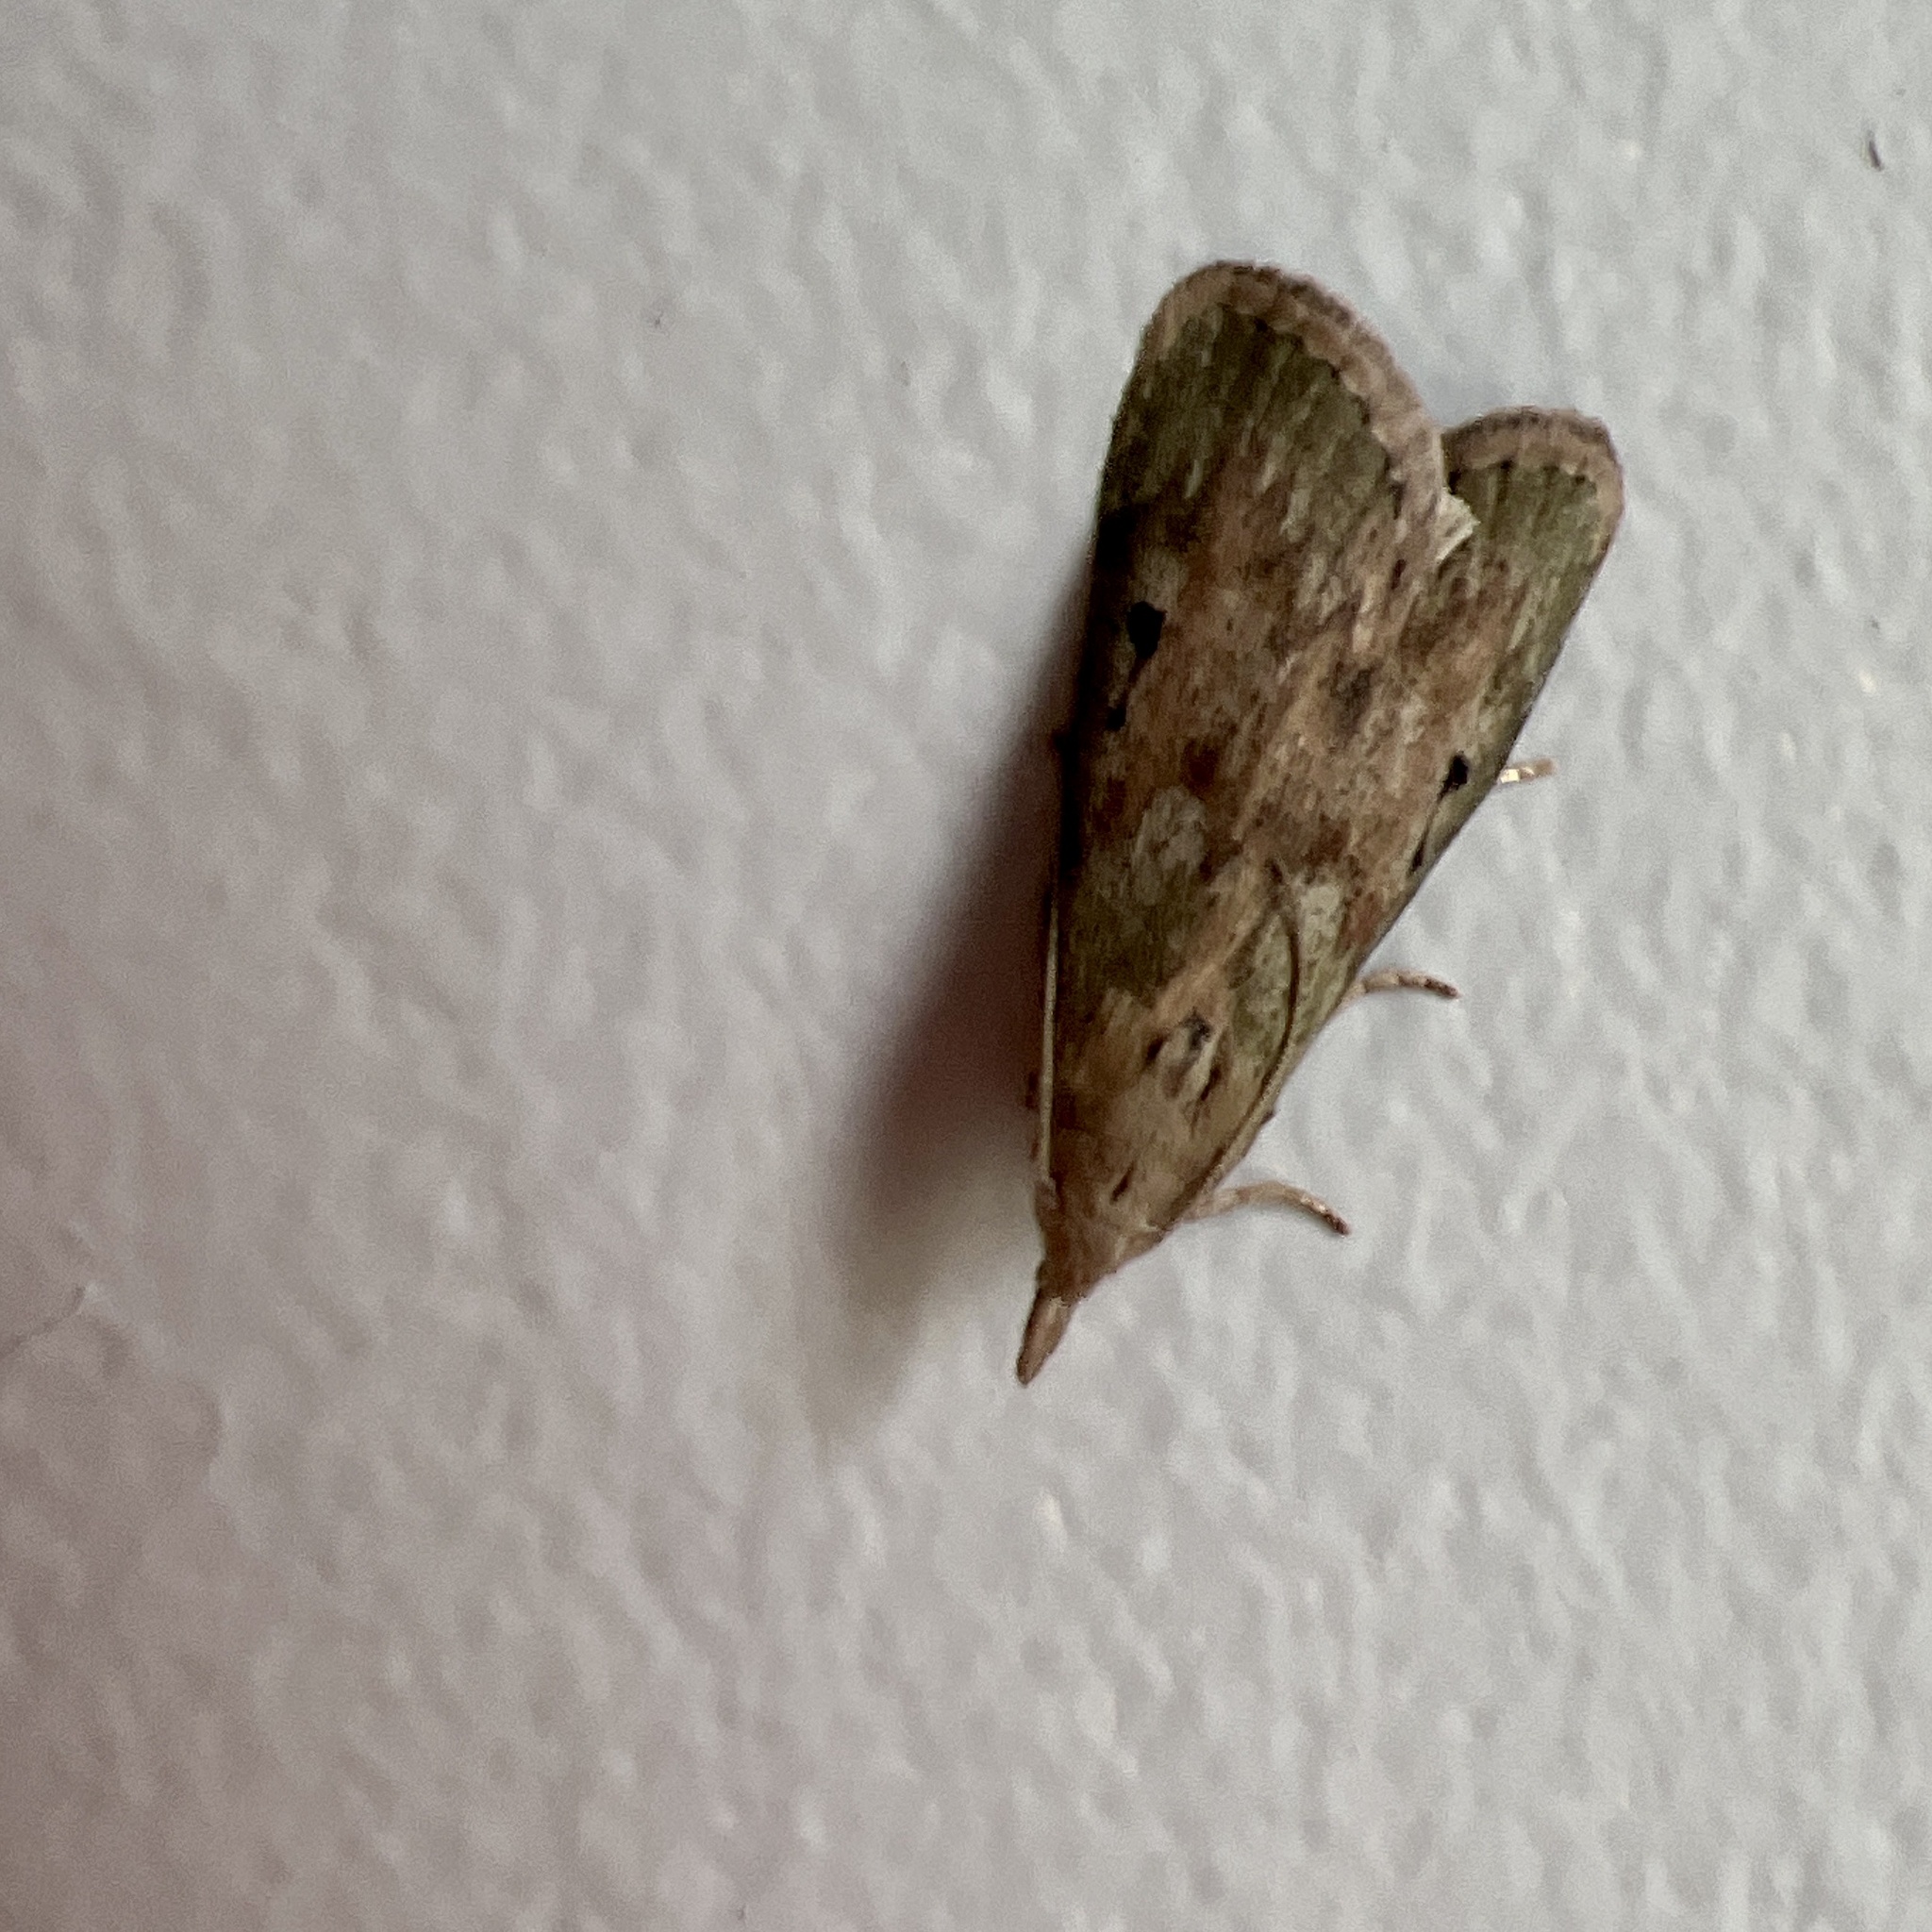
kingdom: Animalia
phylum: Arthropoda
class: Insecta
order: Lepidoptera
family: Pyralidae
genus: Aphomia
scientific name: Aphomia sociella
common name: Bee moth
